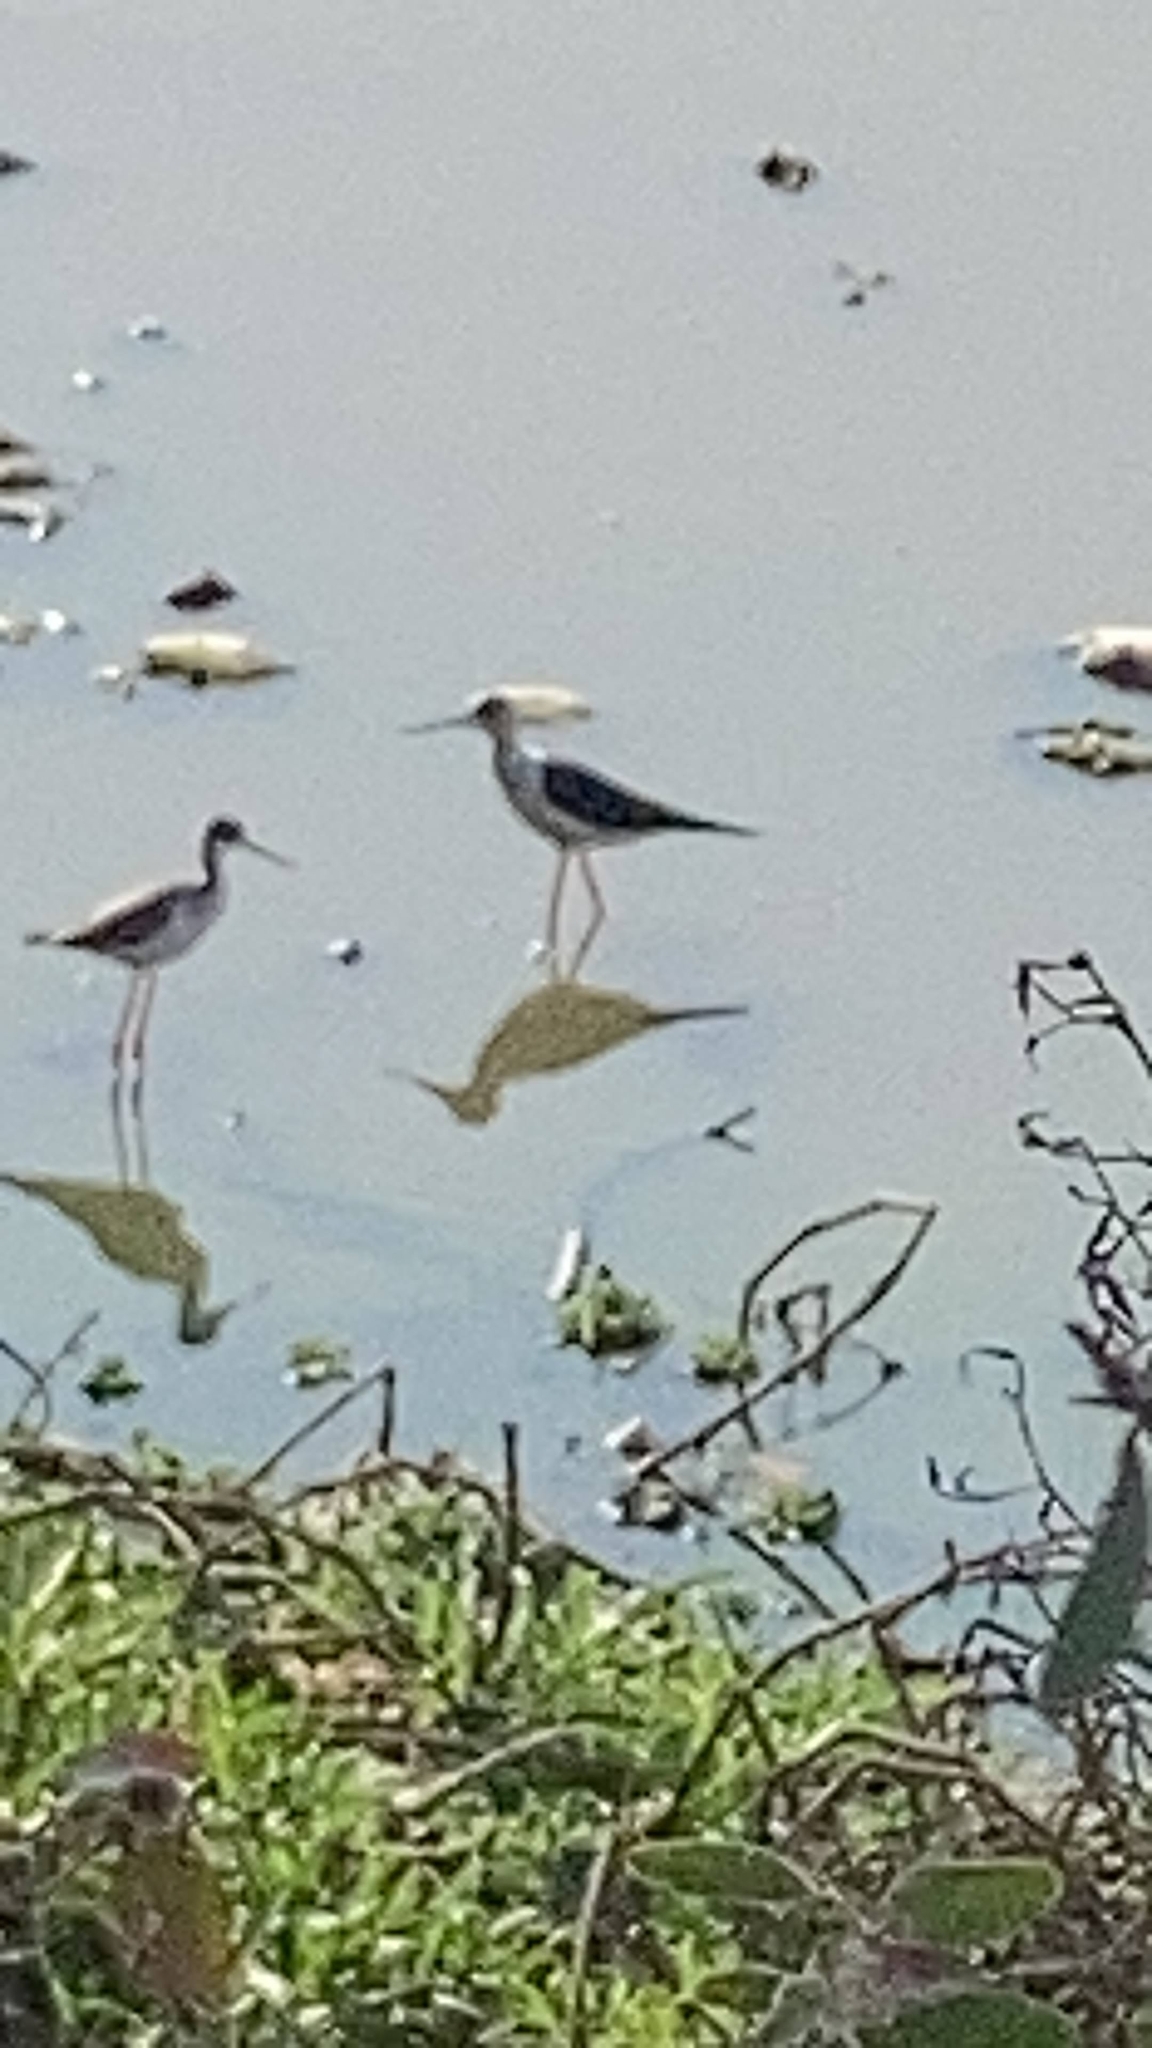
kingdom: Animalia
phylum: Chordata
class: Aves
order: Charadriiformes
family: Recurvirostridae
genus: Himantopus
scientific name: Himantopus himantopus
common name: Black-winged stilt
